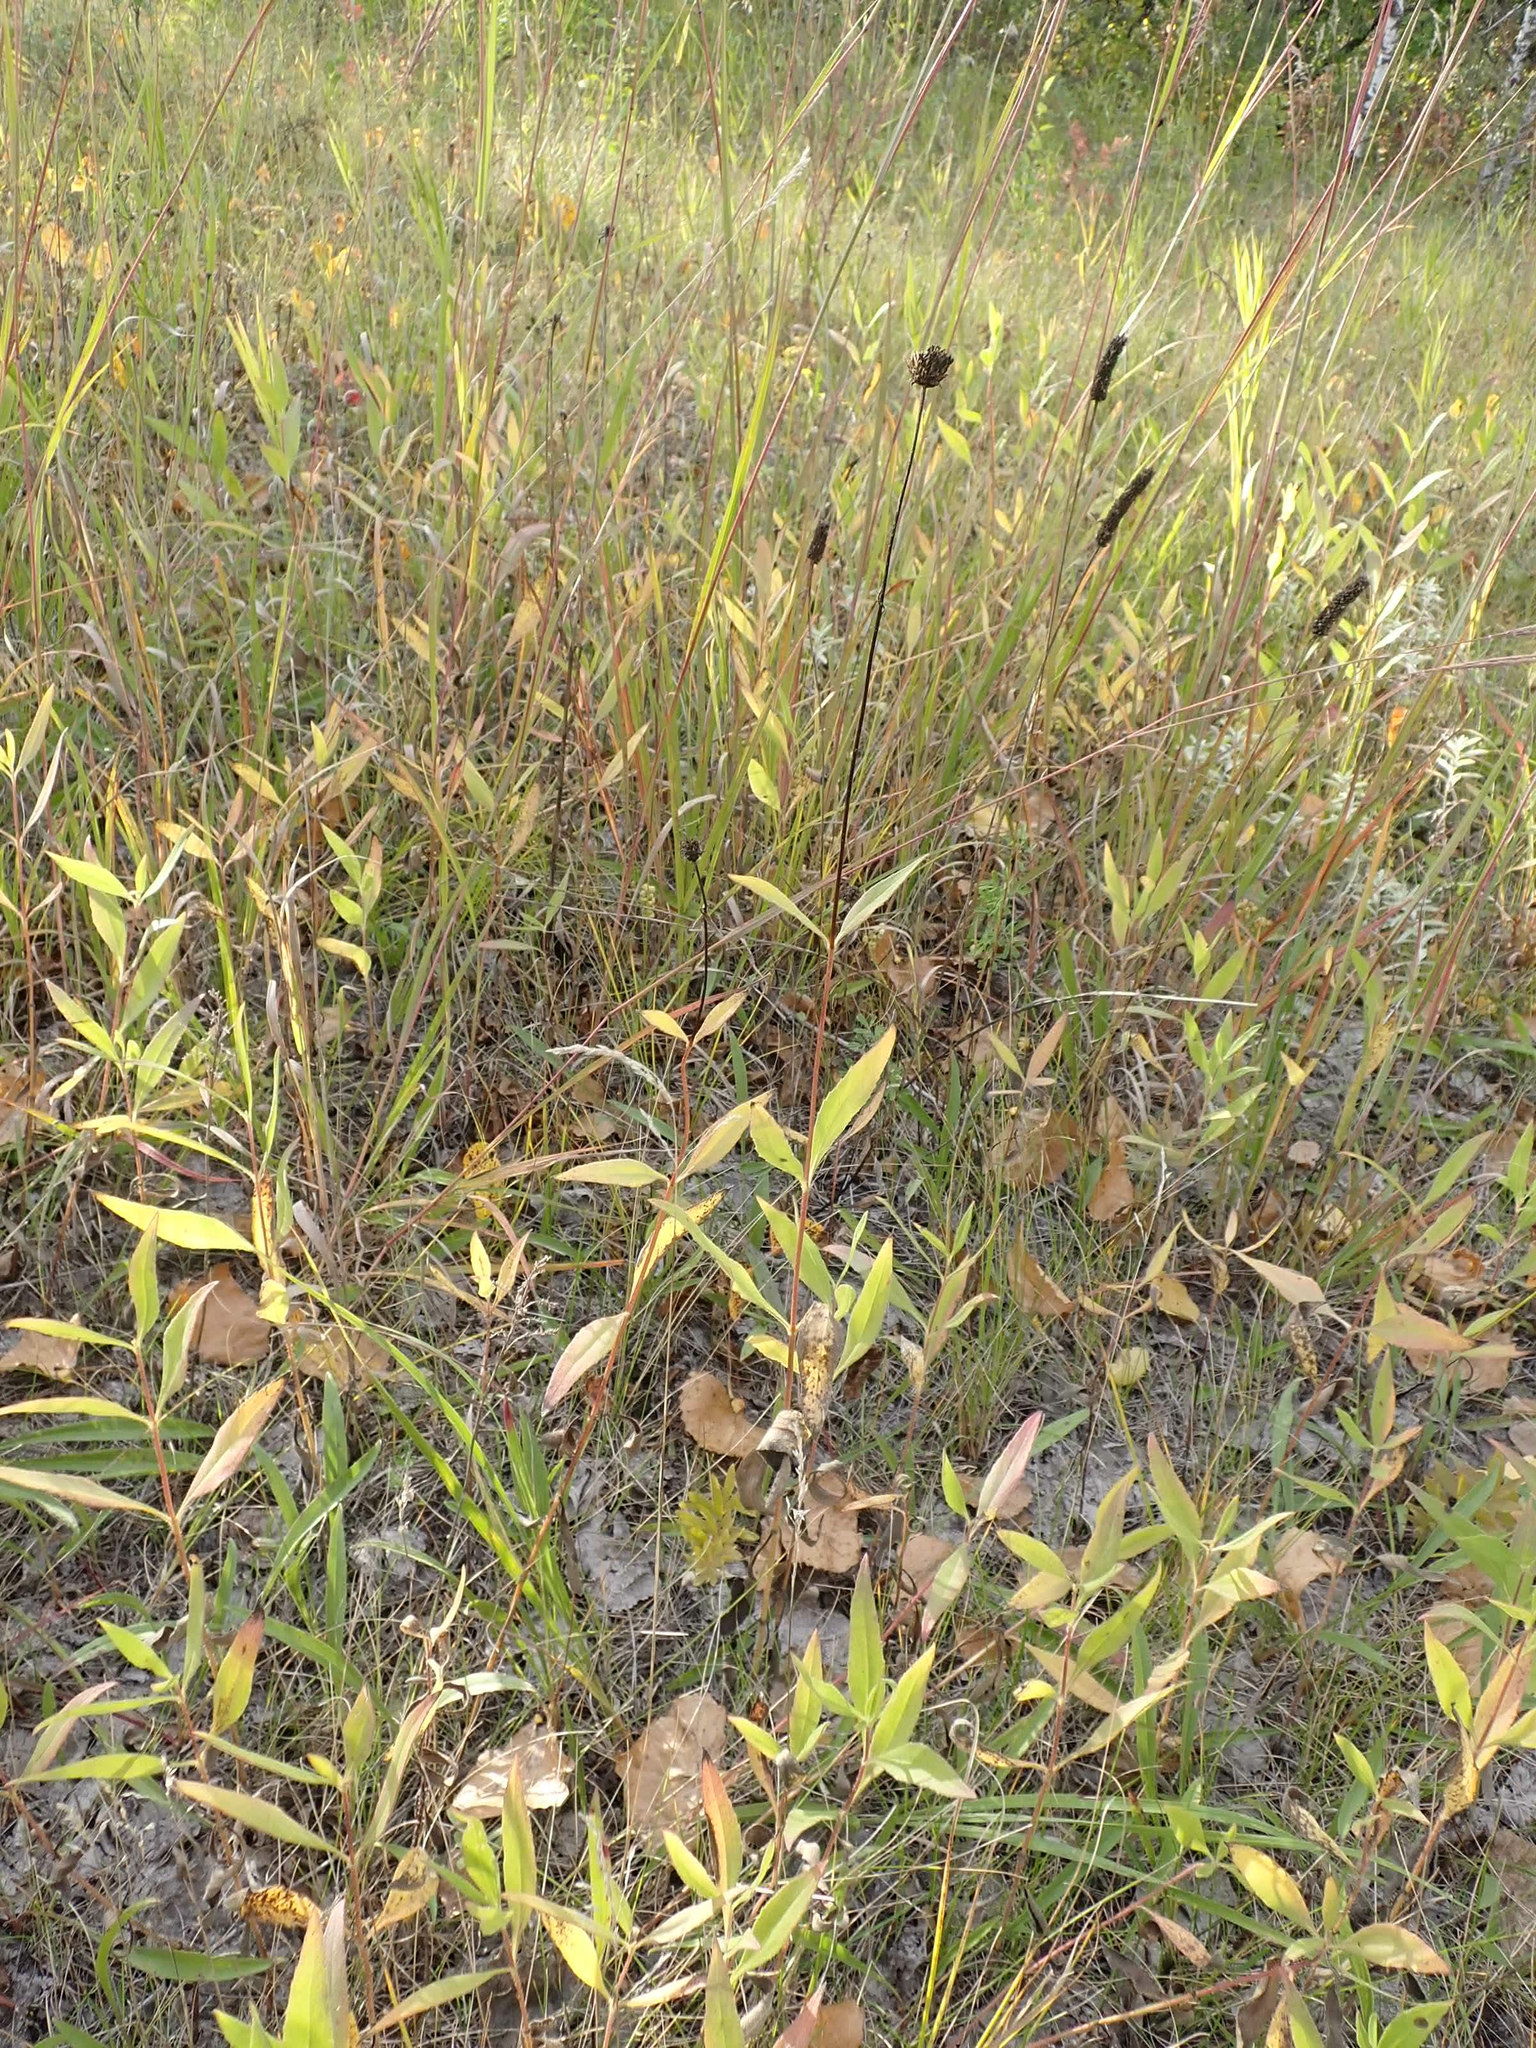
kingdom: Plantae
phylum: Tracheophyta
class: Magnoliopsida
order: Asterales
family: Asteraceae
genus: Helianthus
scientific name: Helianthus pauciflorus
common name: Stiff sunflower
